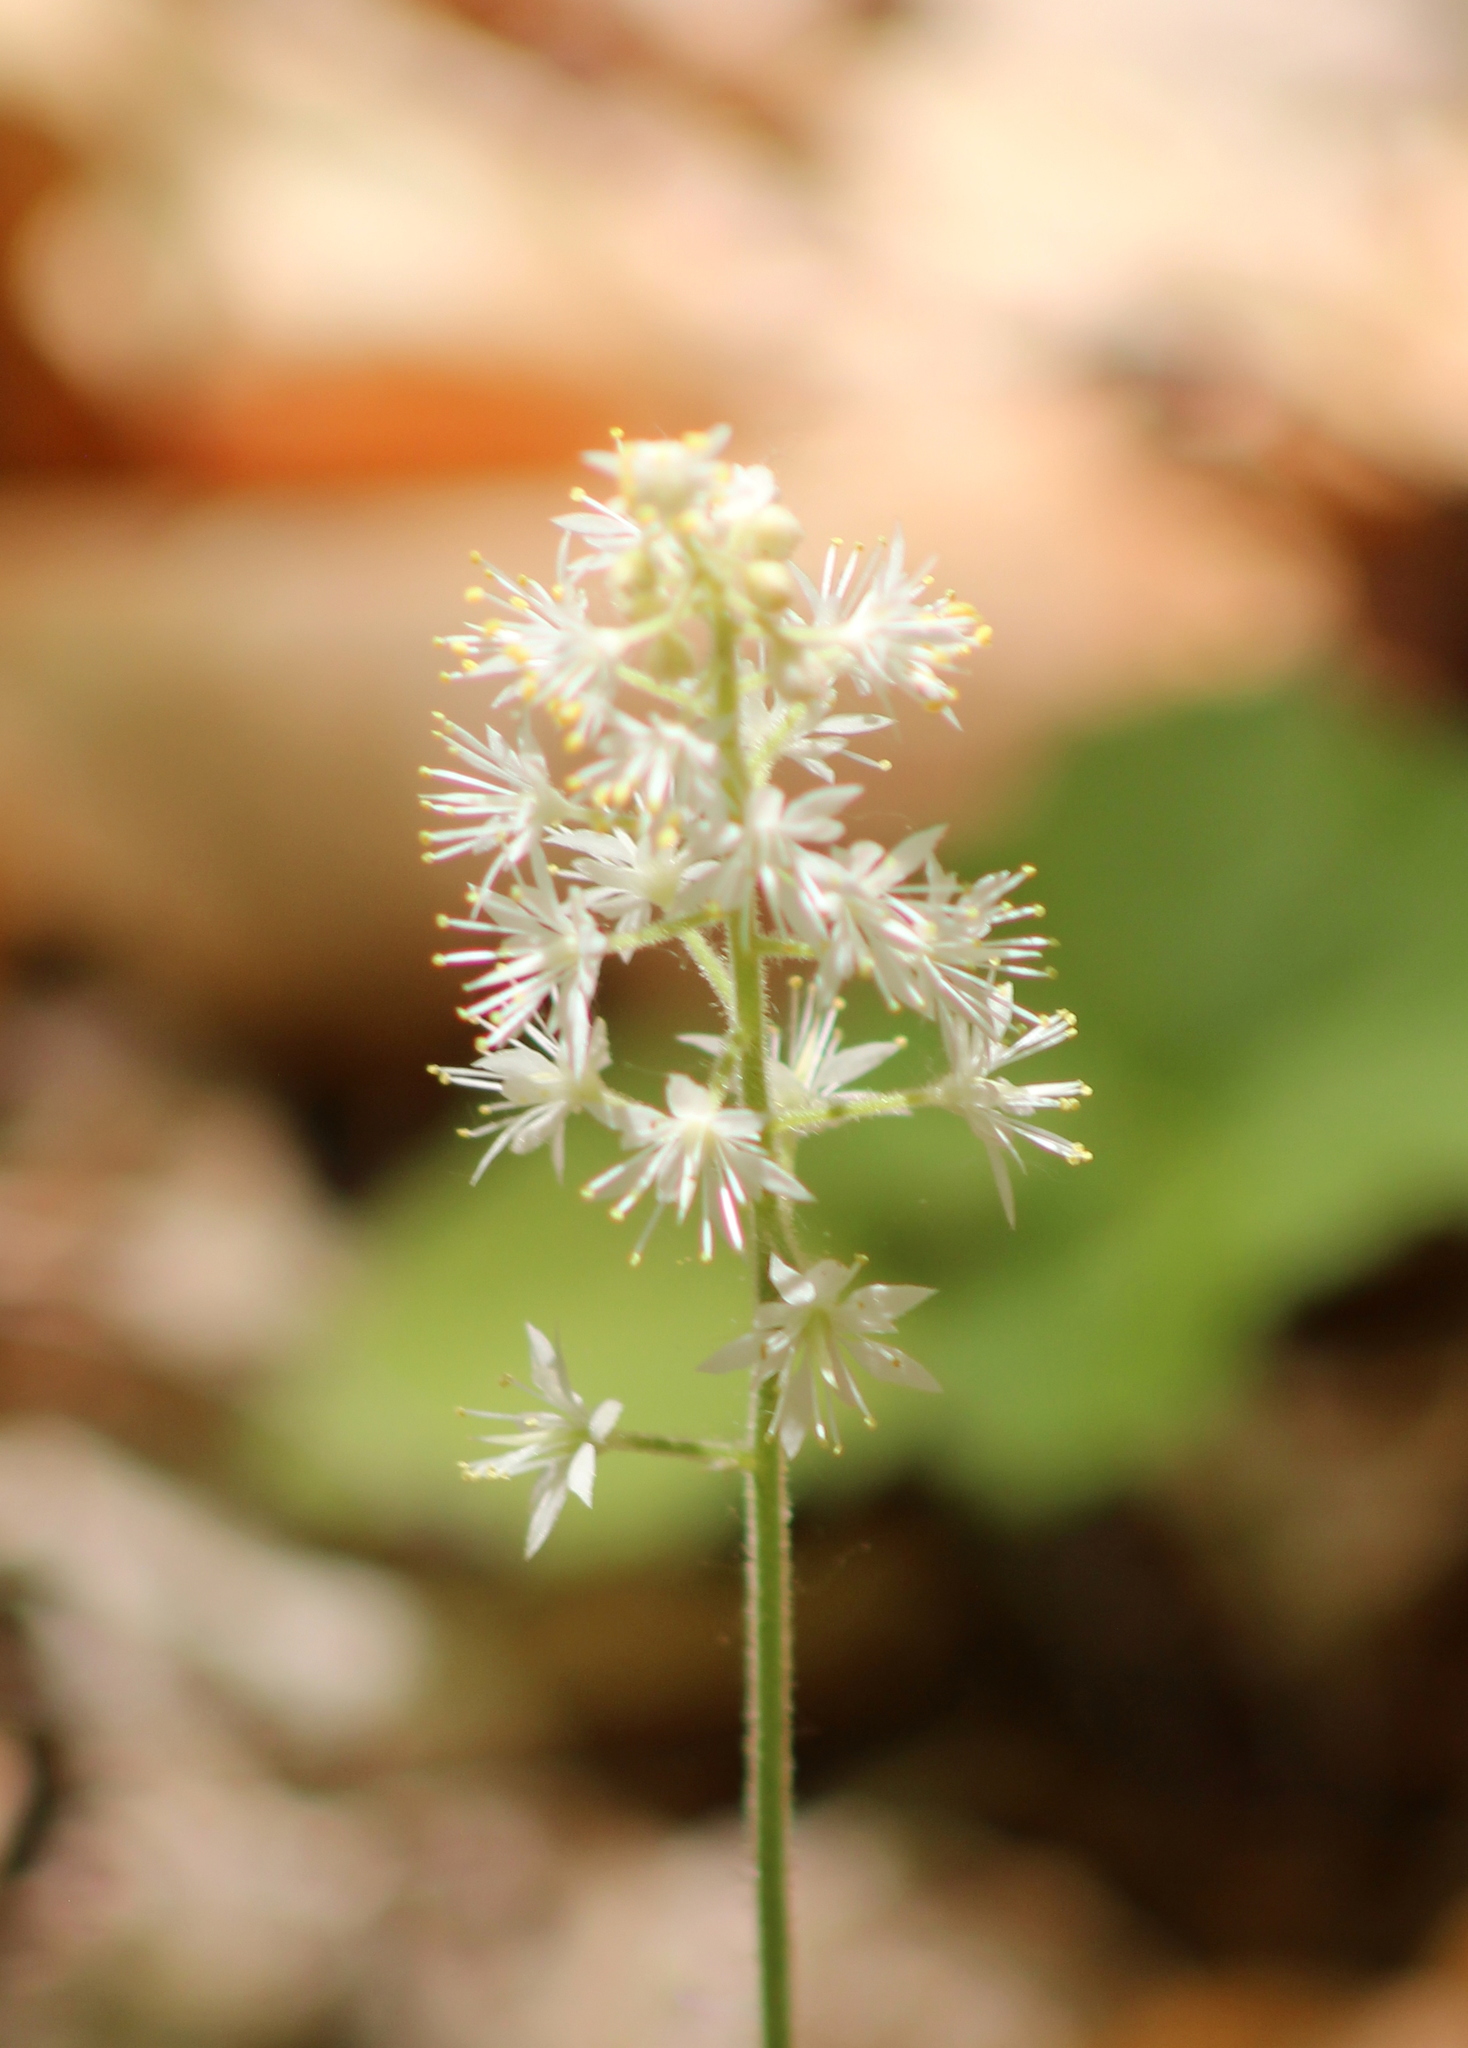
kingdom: Plantae
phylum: Tracheophyta
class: Magnoliopsida
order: Saxifragales
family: Saxifragaceae
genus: Tiarella
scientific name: Tiarella stolonifera
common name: Stoloniferous foamflower
